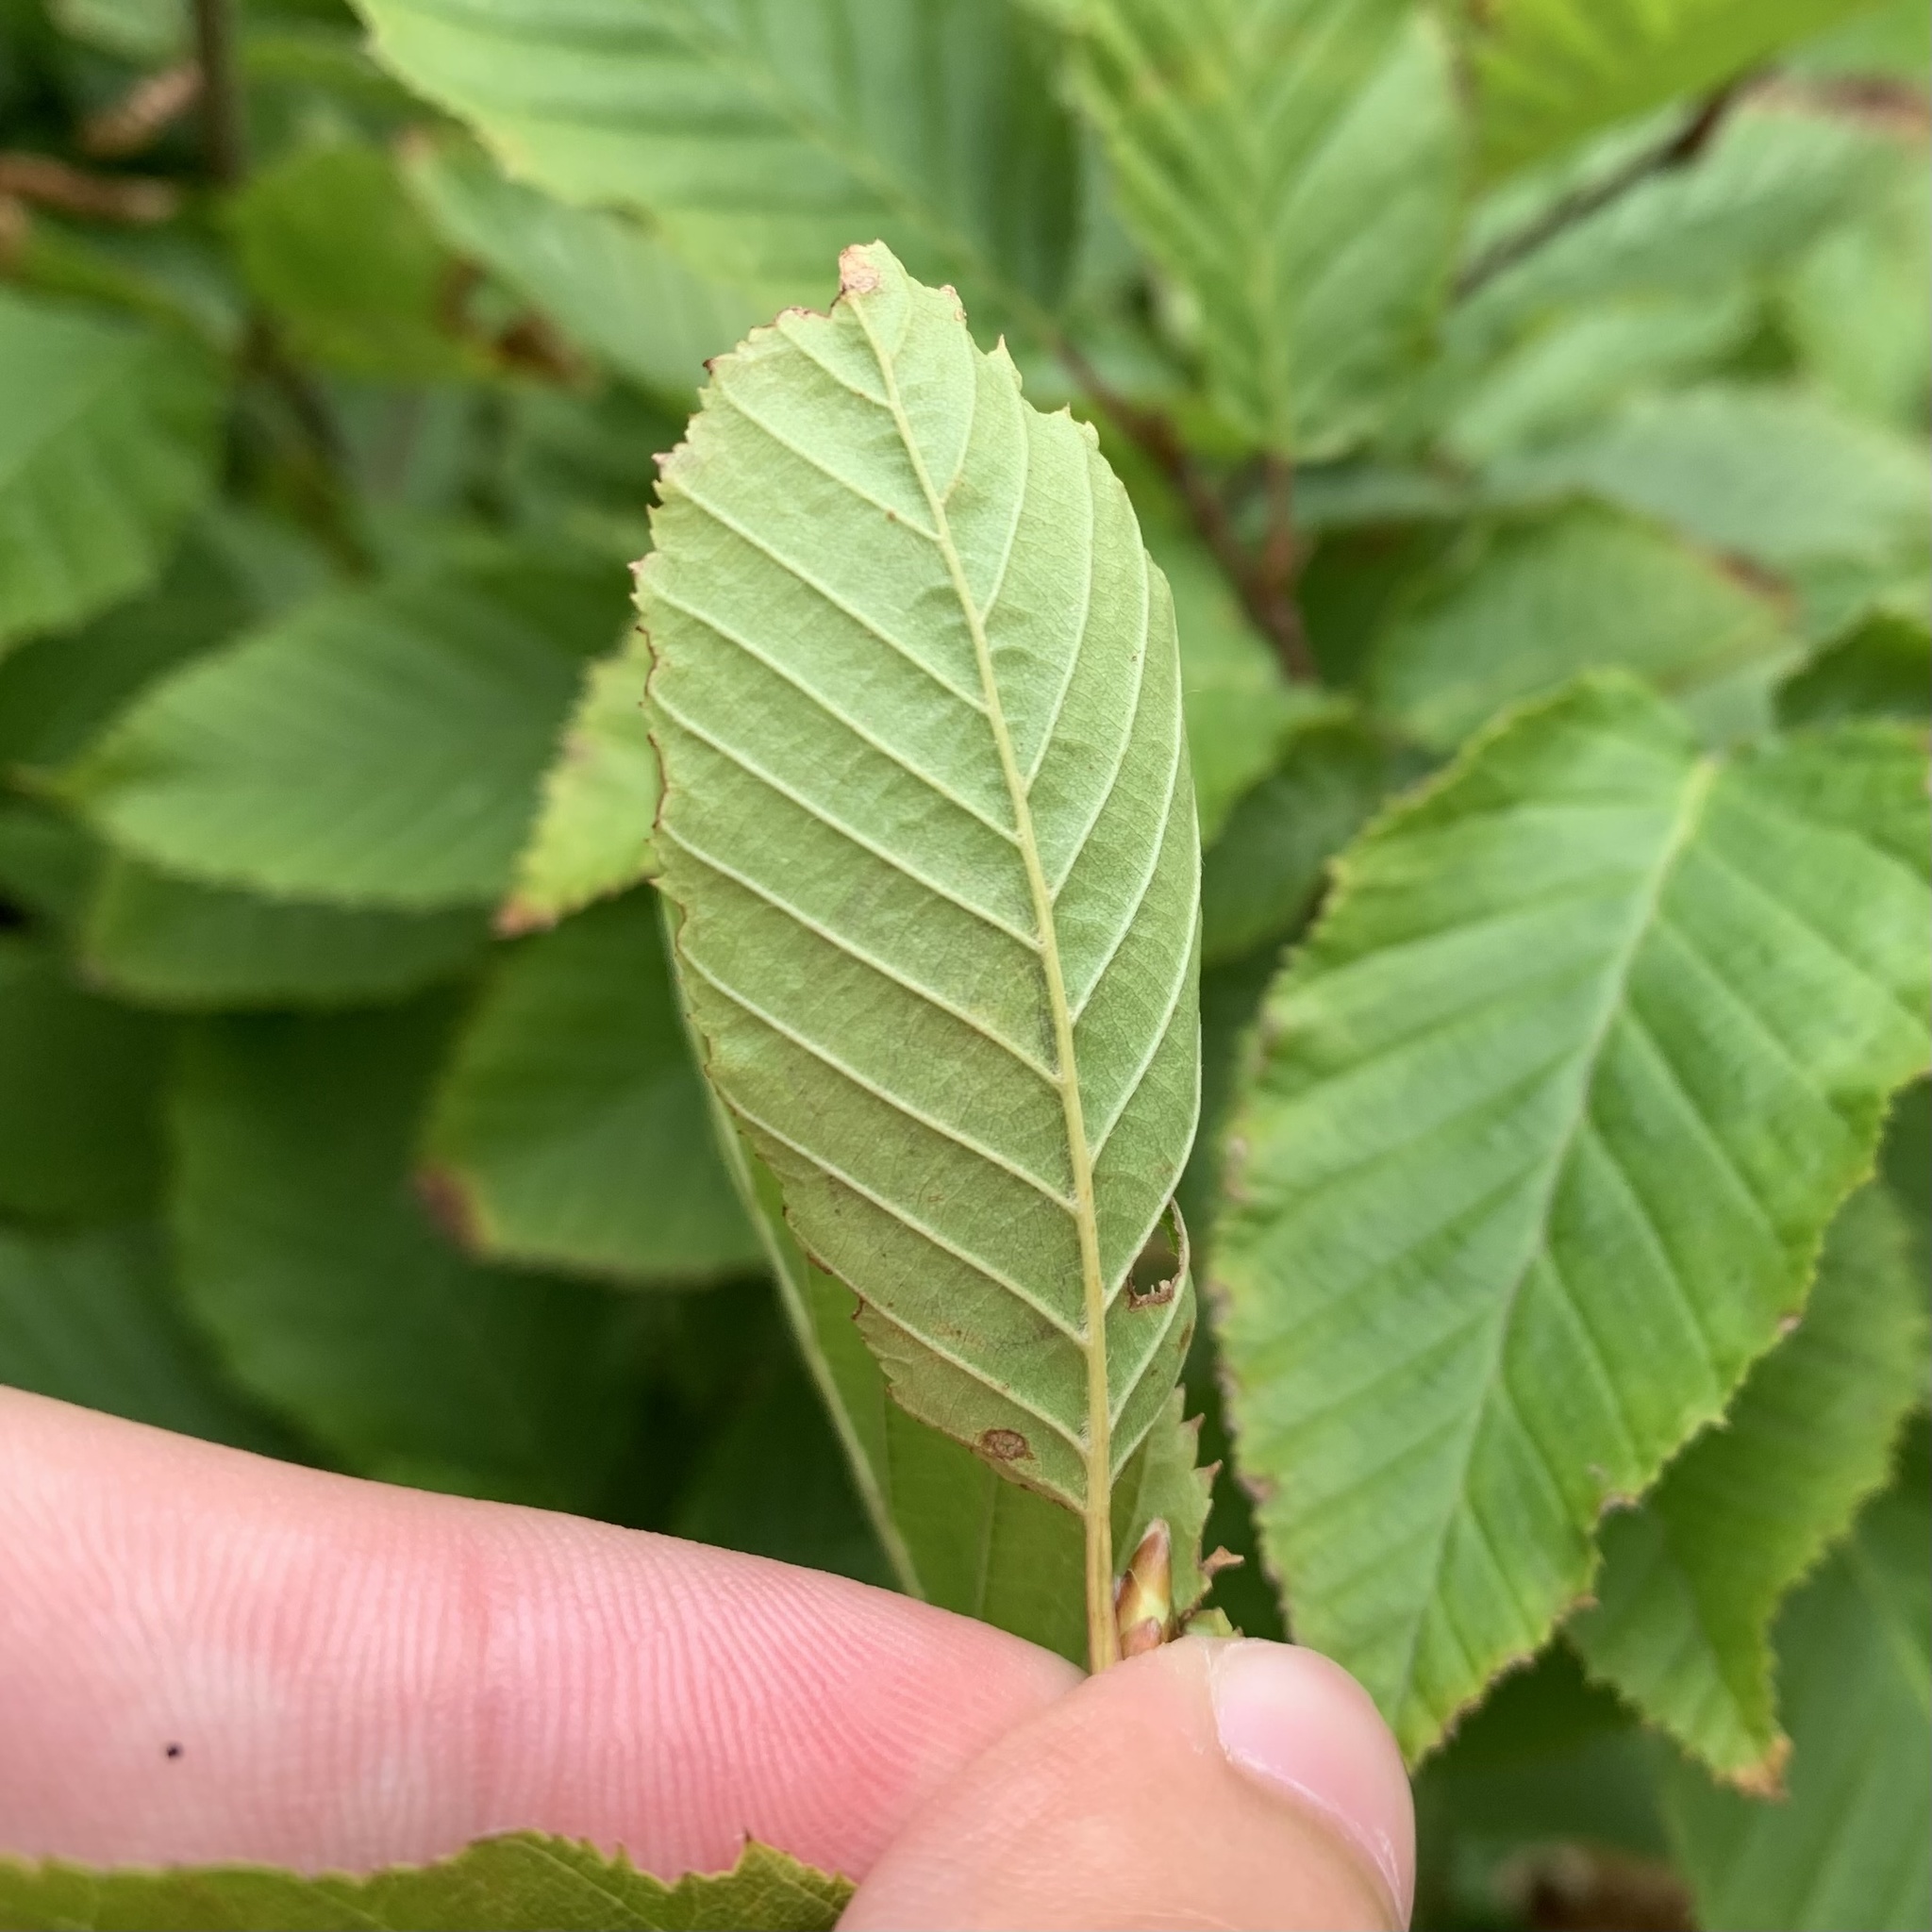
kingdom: Animalia
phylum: Arthropoda
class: Insecta
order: Lepidoptera
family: Gracillariidae
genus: Phyllonorycter
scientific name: Phyllonorycter esperella
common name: Dark hornbeam midget
